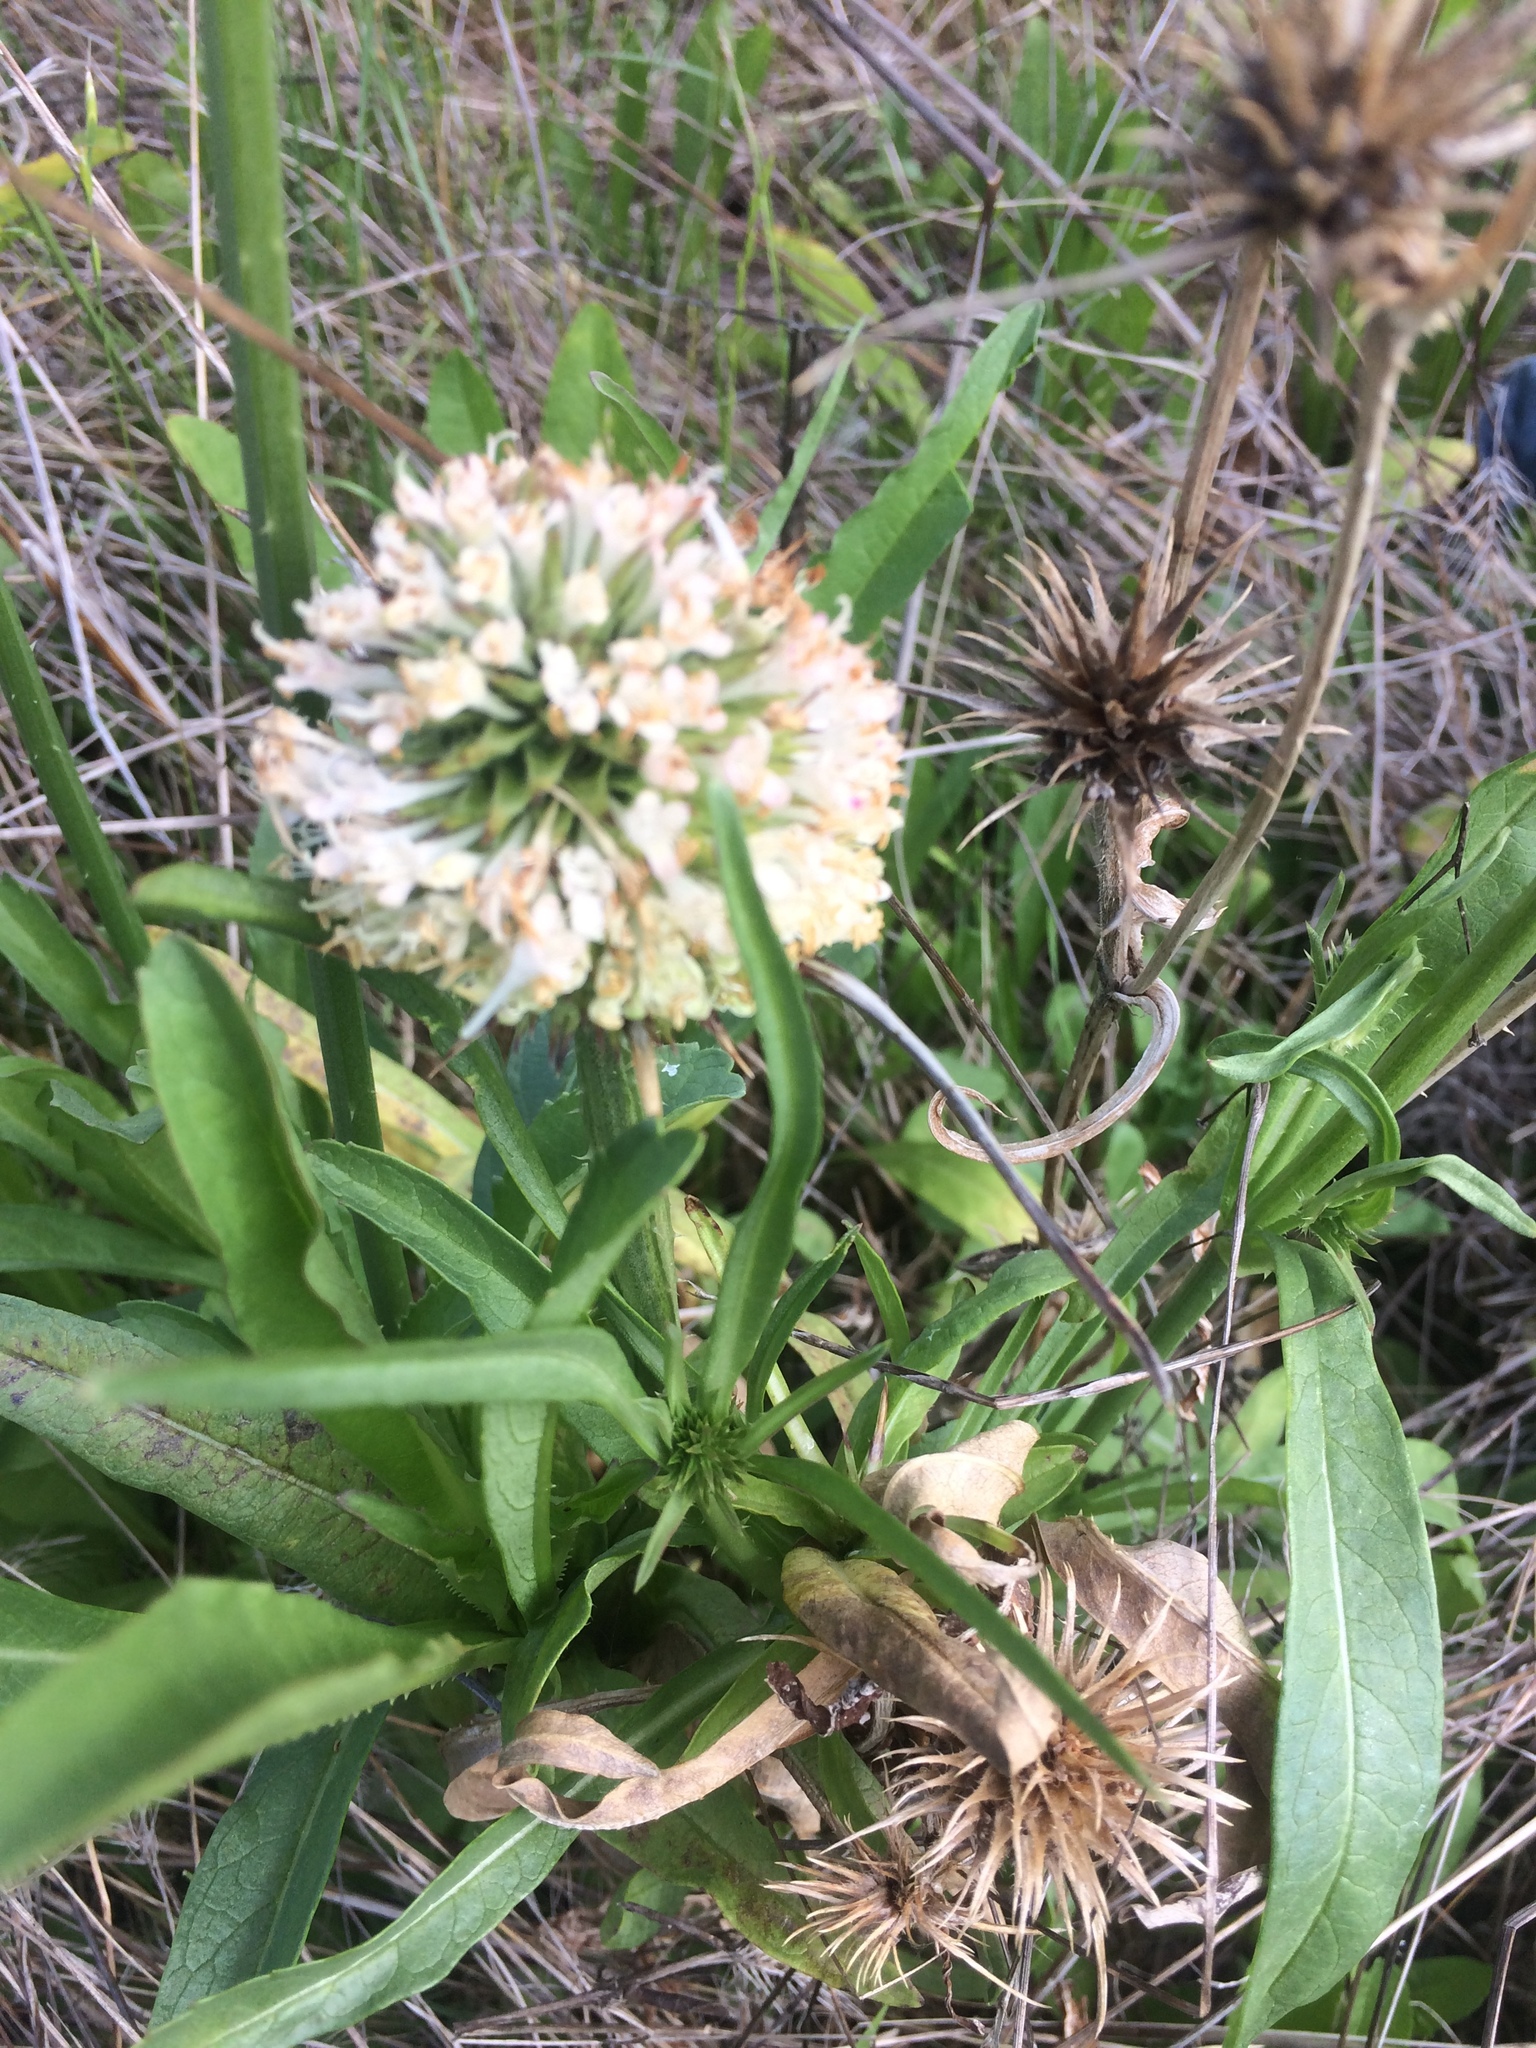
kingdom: Plantae
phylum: Tracheophyta
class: Magnoliopsida
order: Dipsacales
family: Caprifoliaceae
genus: Dipsacus
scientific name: Dipsacus sativus
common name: Fuller's teasel
